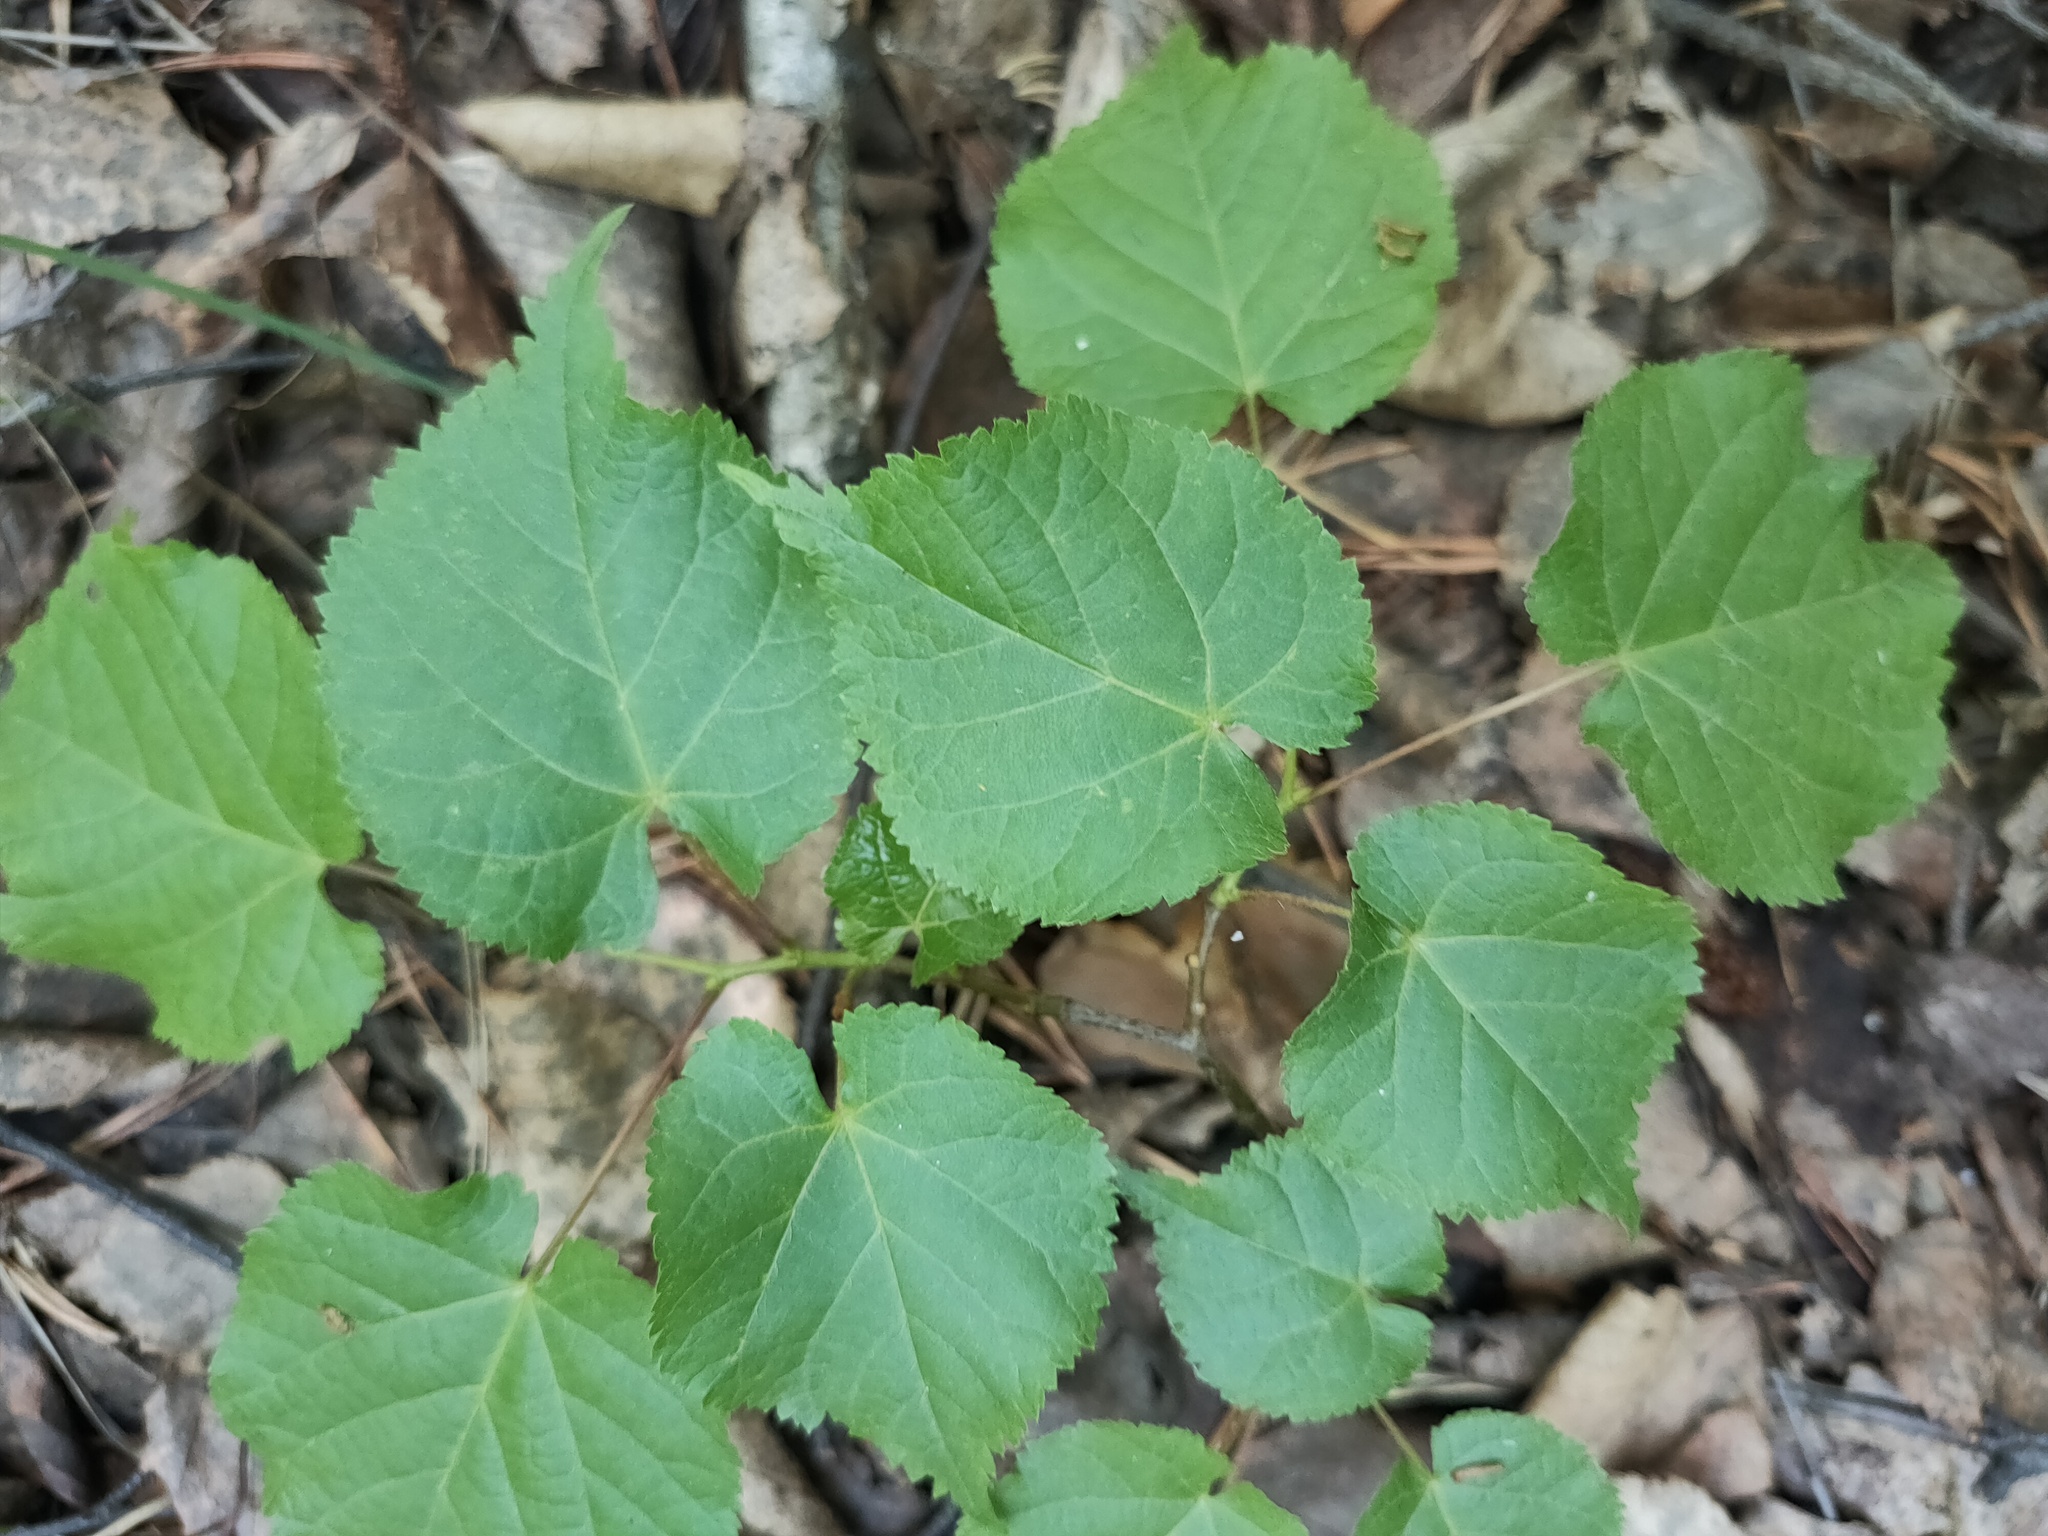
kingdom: Plantae
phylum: Tracheophyta
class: Magnoliopsida
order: Malvales
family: Malvaceae
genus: Tilia
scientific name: Tilia cordata
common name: Small-leaved lime
